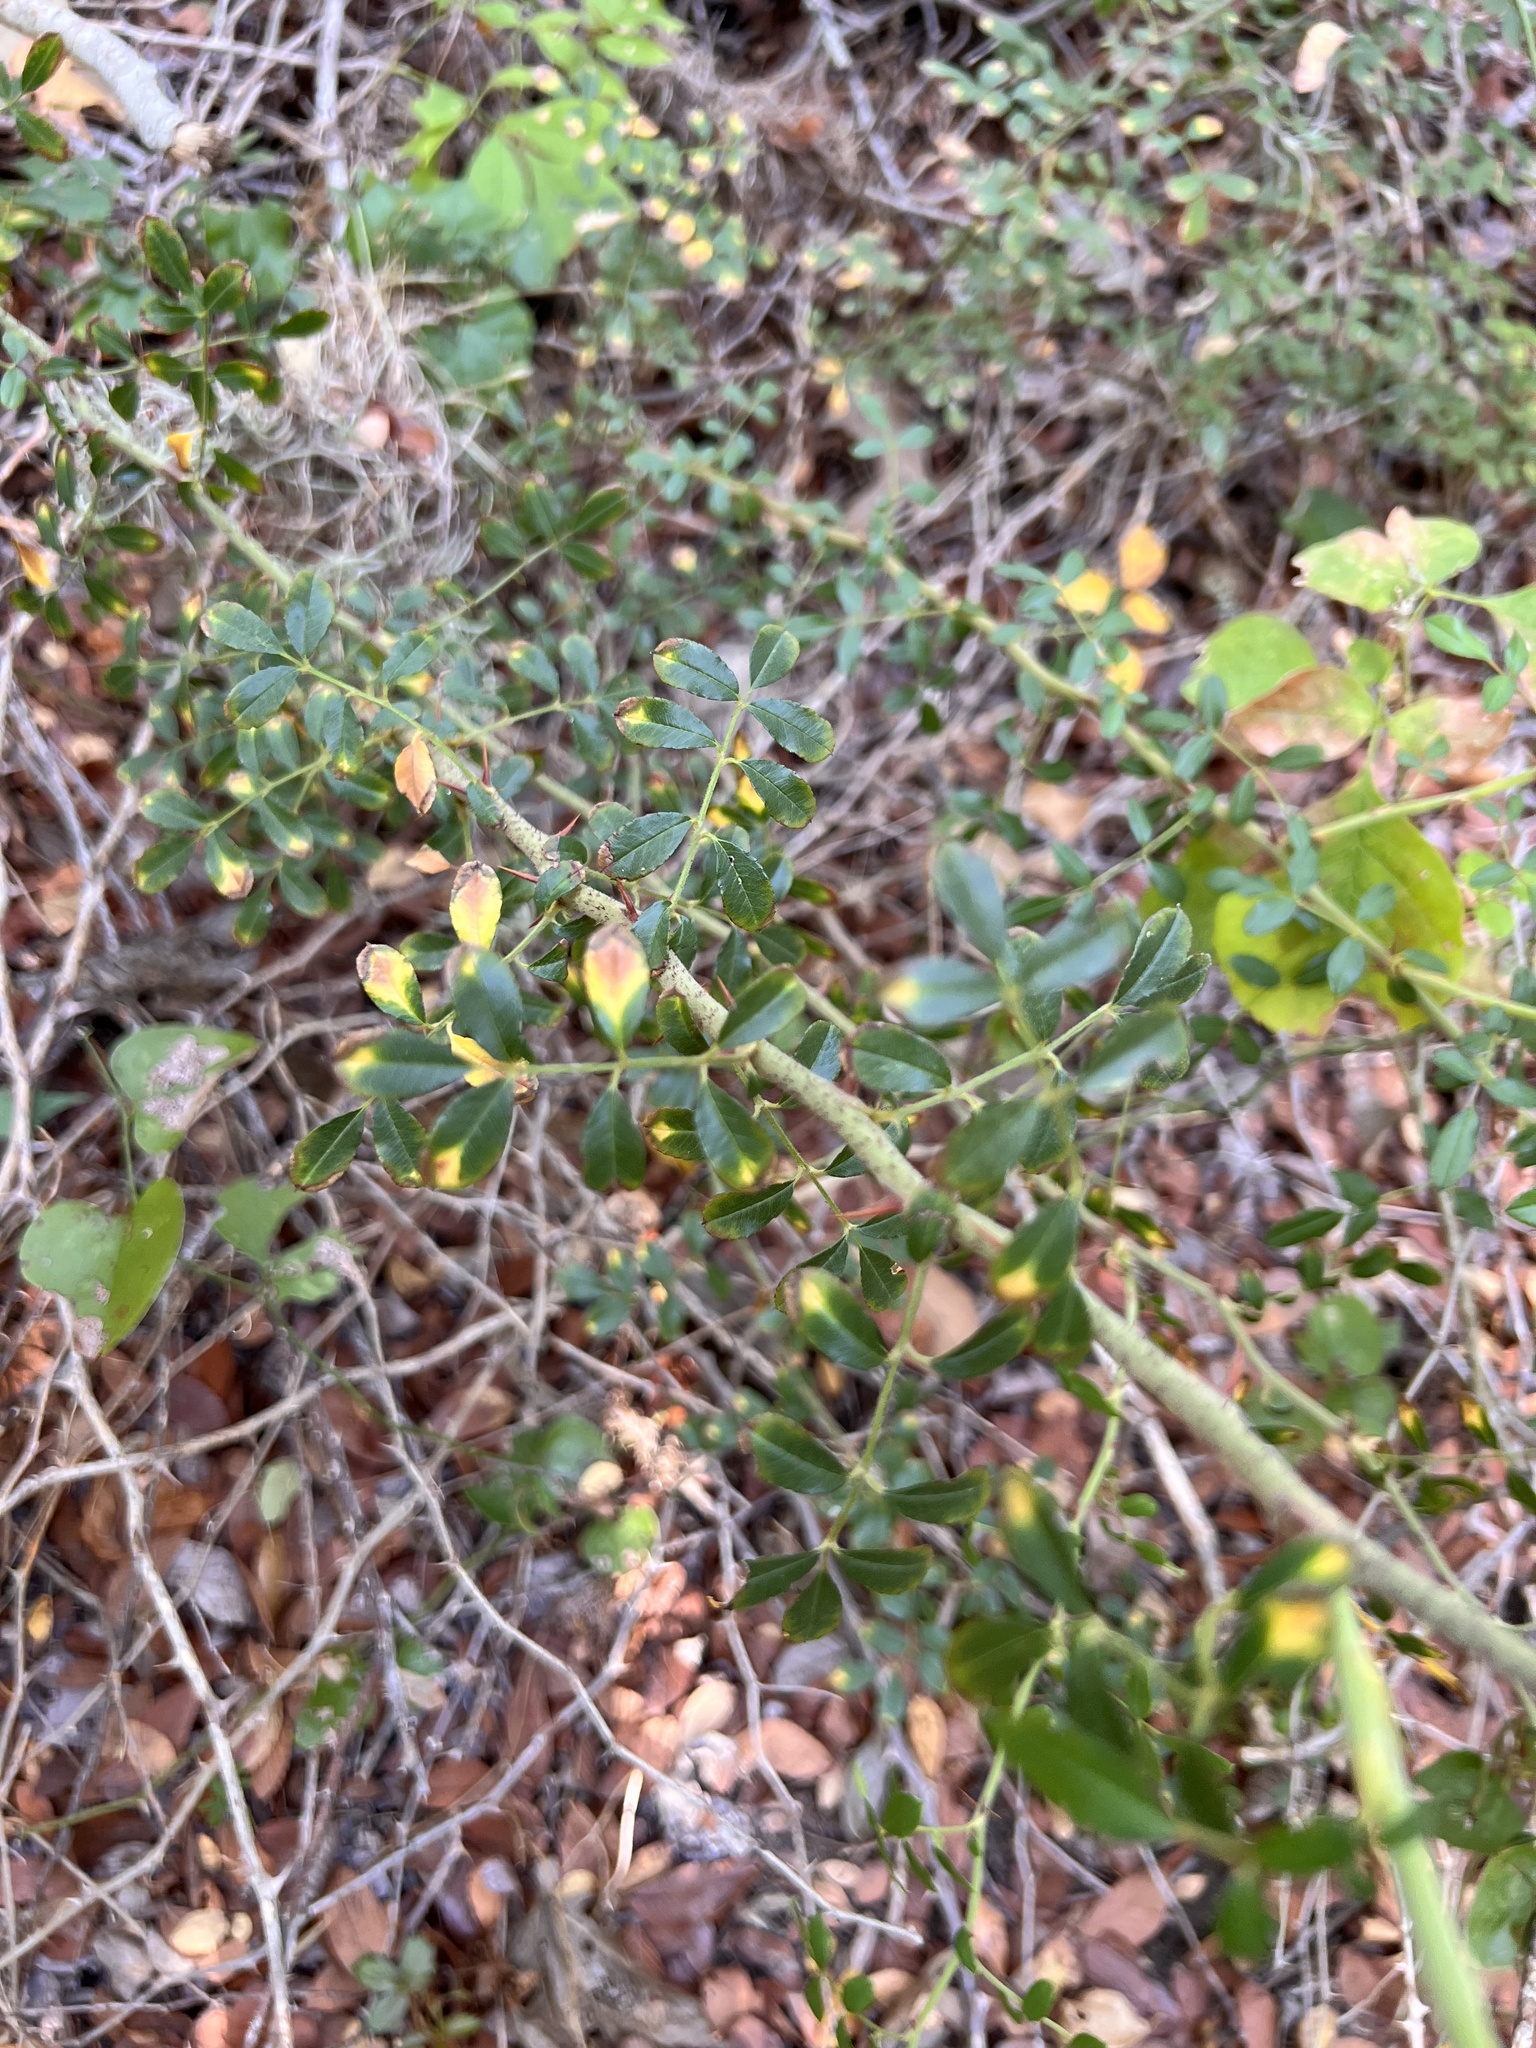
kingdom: Plantae
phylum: Tracheophyta
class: Magnoliopsida
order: Rosales
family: Rosaceae
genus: Rosa
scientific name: Rosa bracteata
